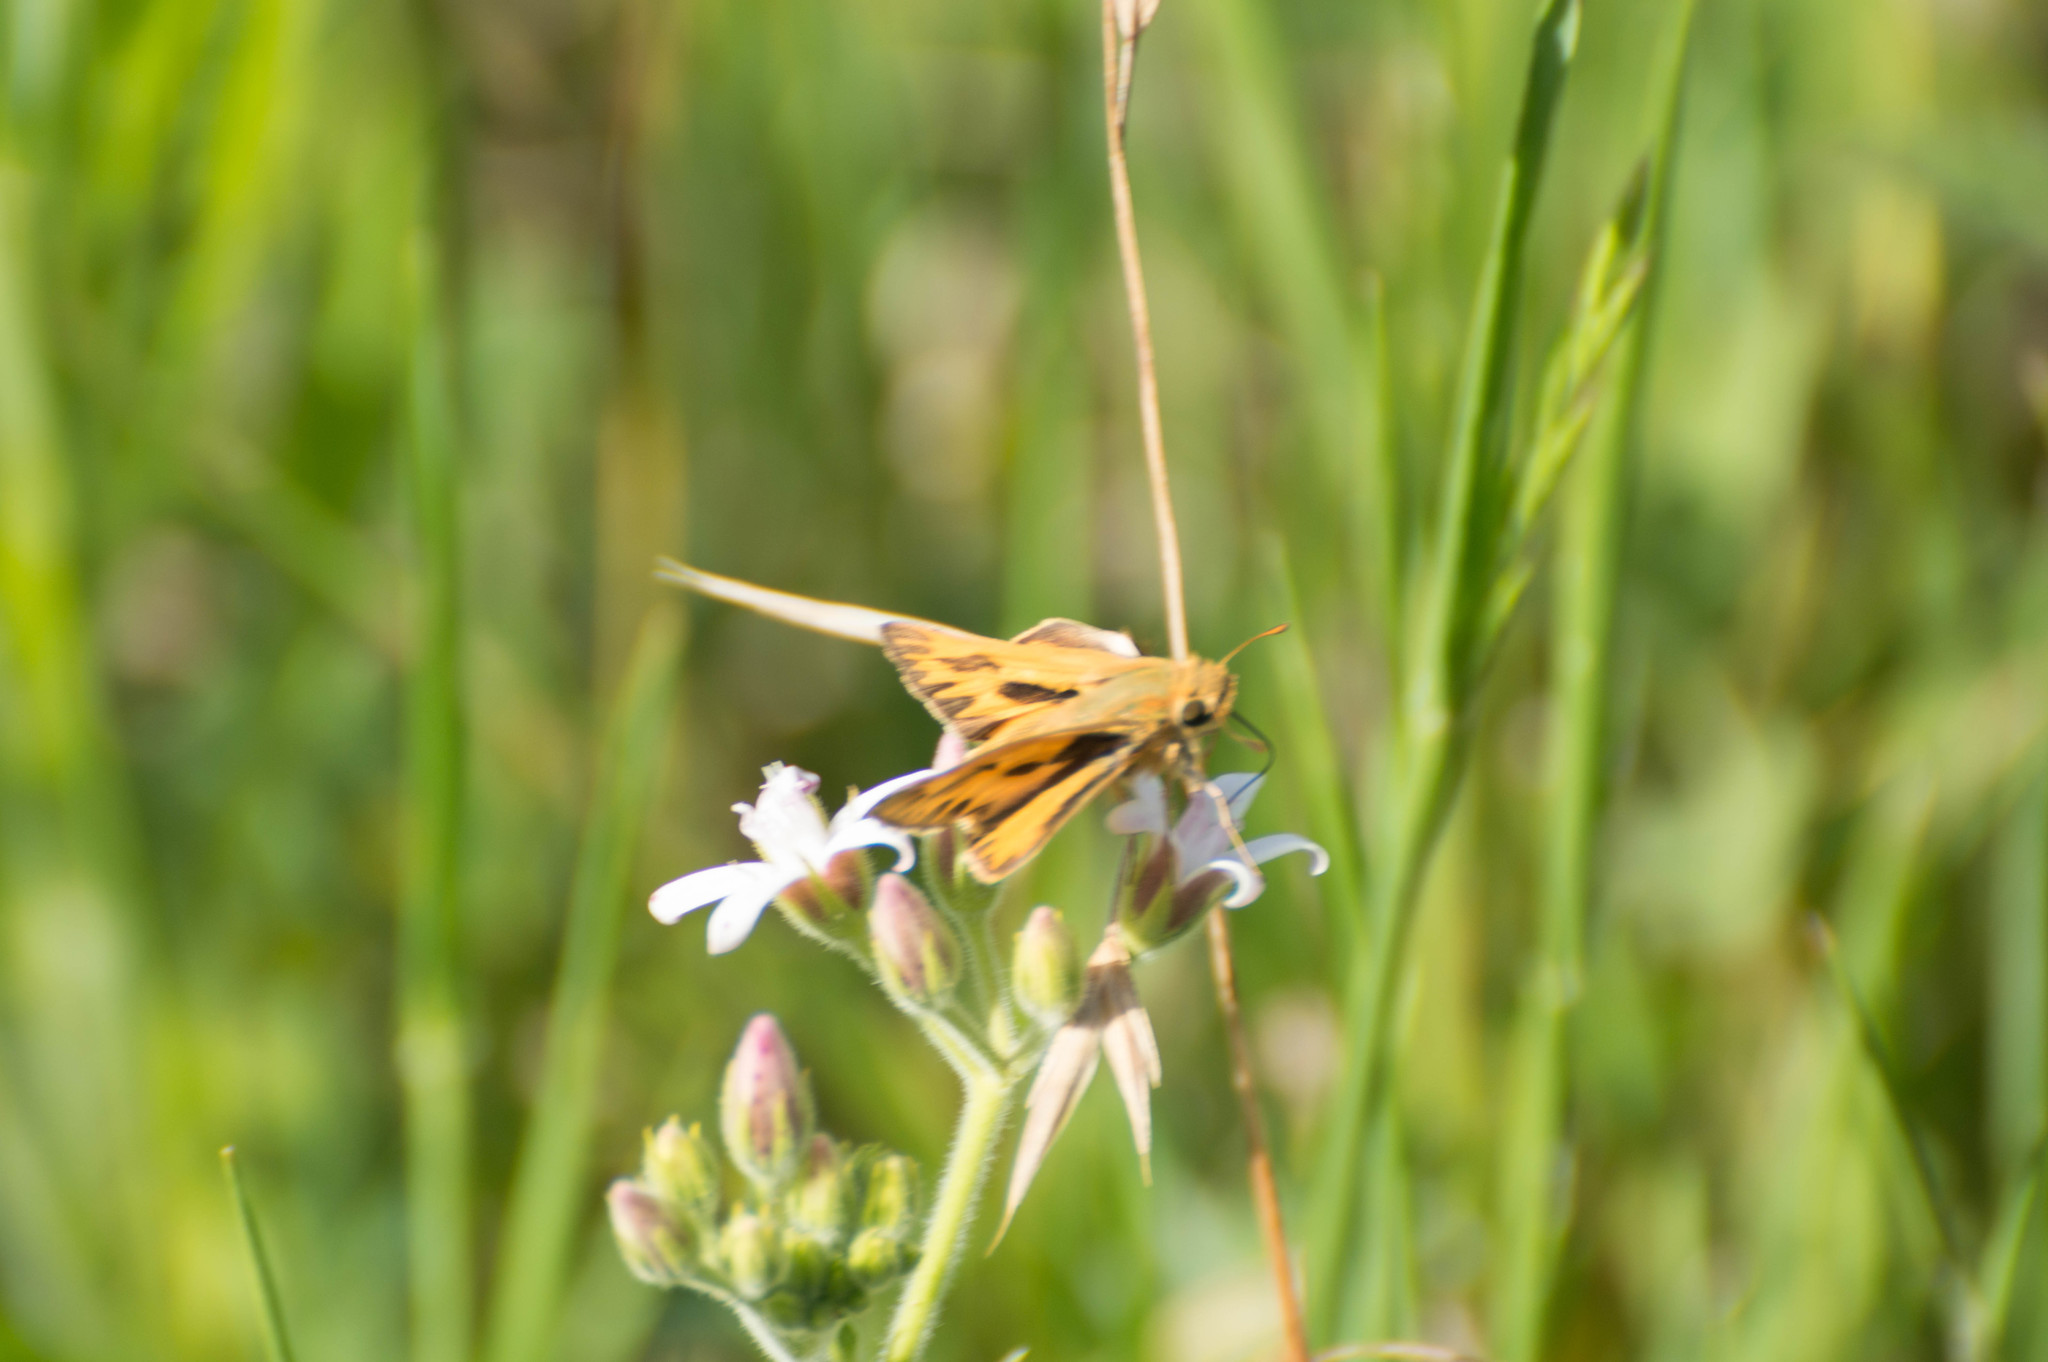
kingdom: Animalia
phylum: Arthropoda
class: Insecta
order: Lepidoptera
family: Hesperiidae
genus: Hylephila
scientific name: Hylephila phyleus
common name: Fiery skipper
